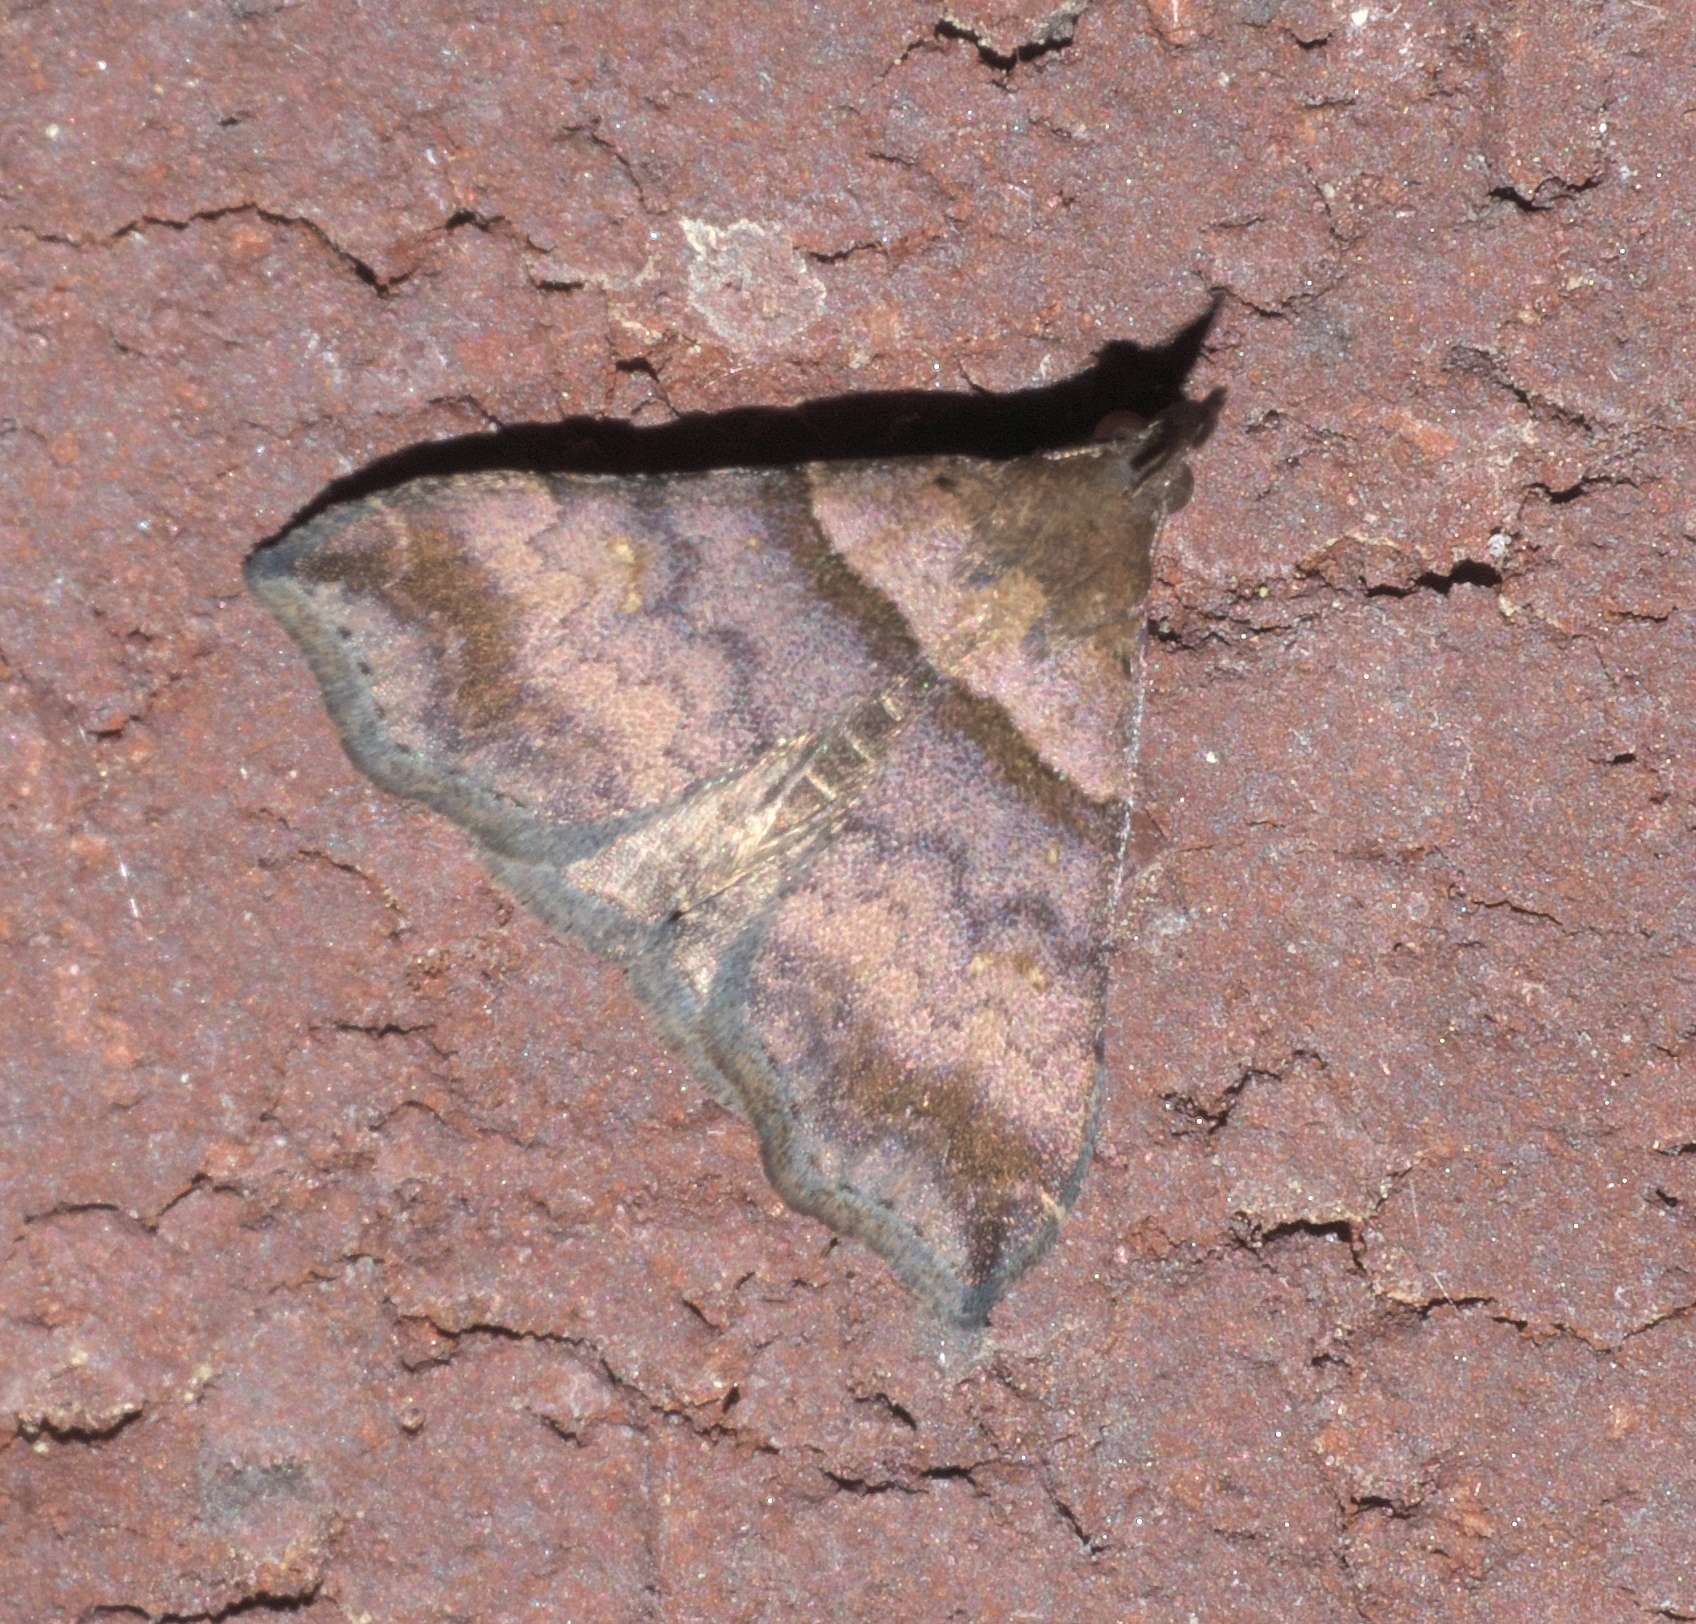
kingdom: Animalia
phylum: Arthropoda
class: Insecta
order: Lepidoptera
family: Erebidae
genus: Lascoria
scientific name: Lascoria ambigualis
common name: Ambiguous moth
